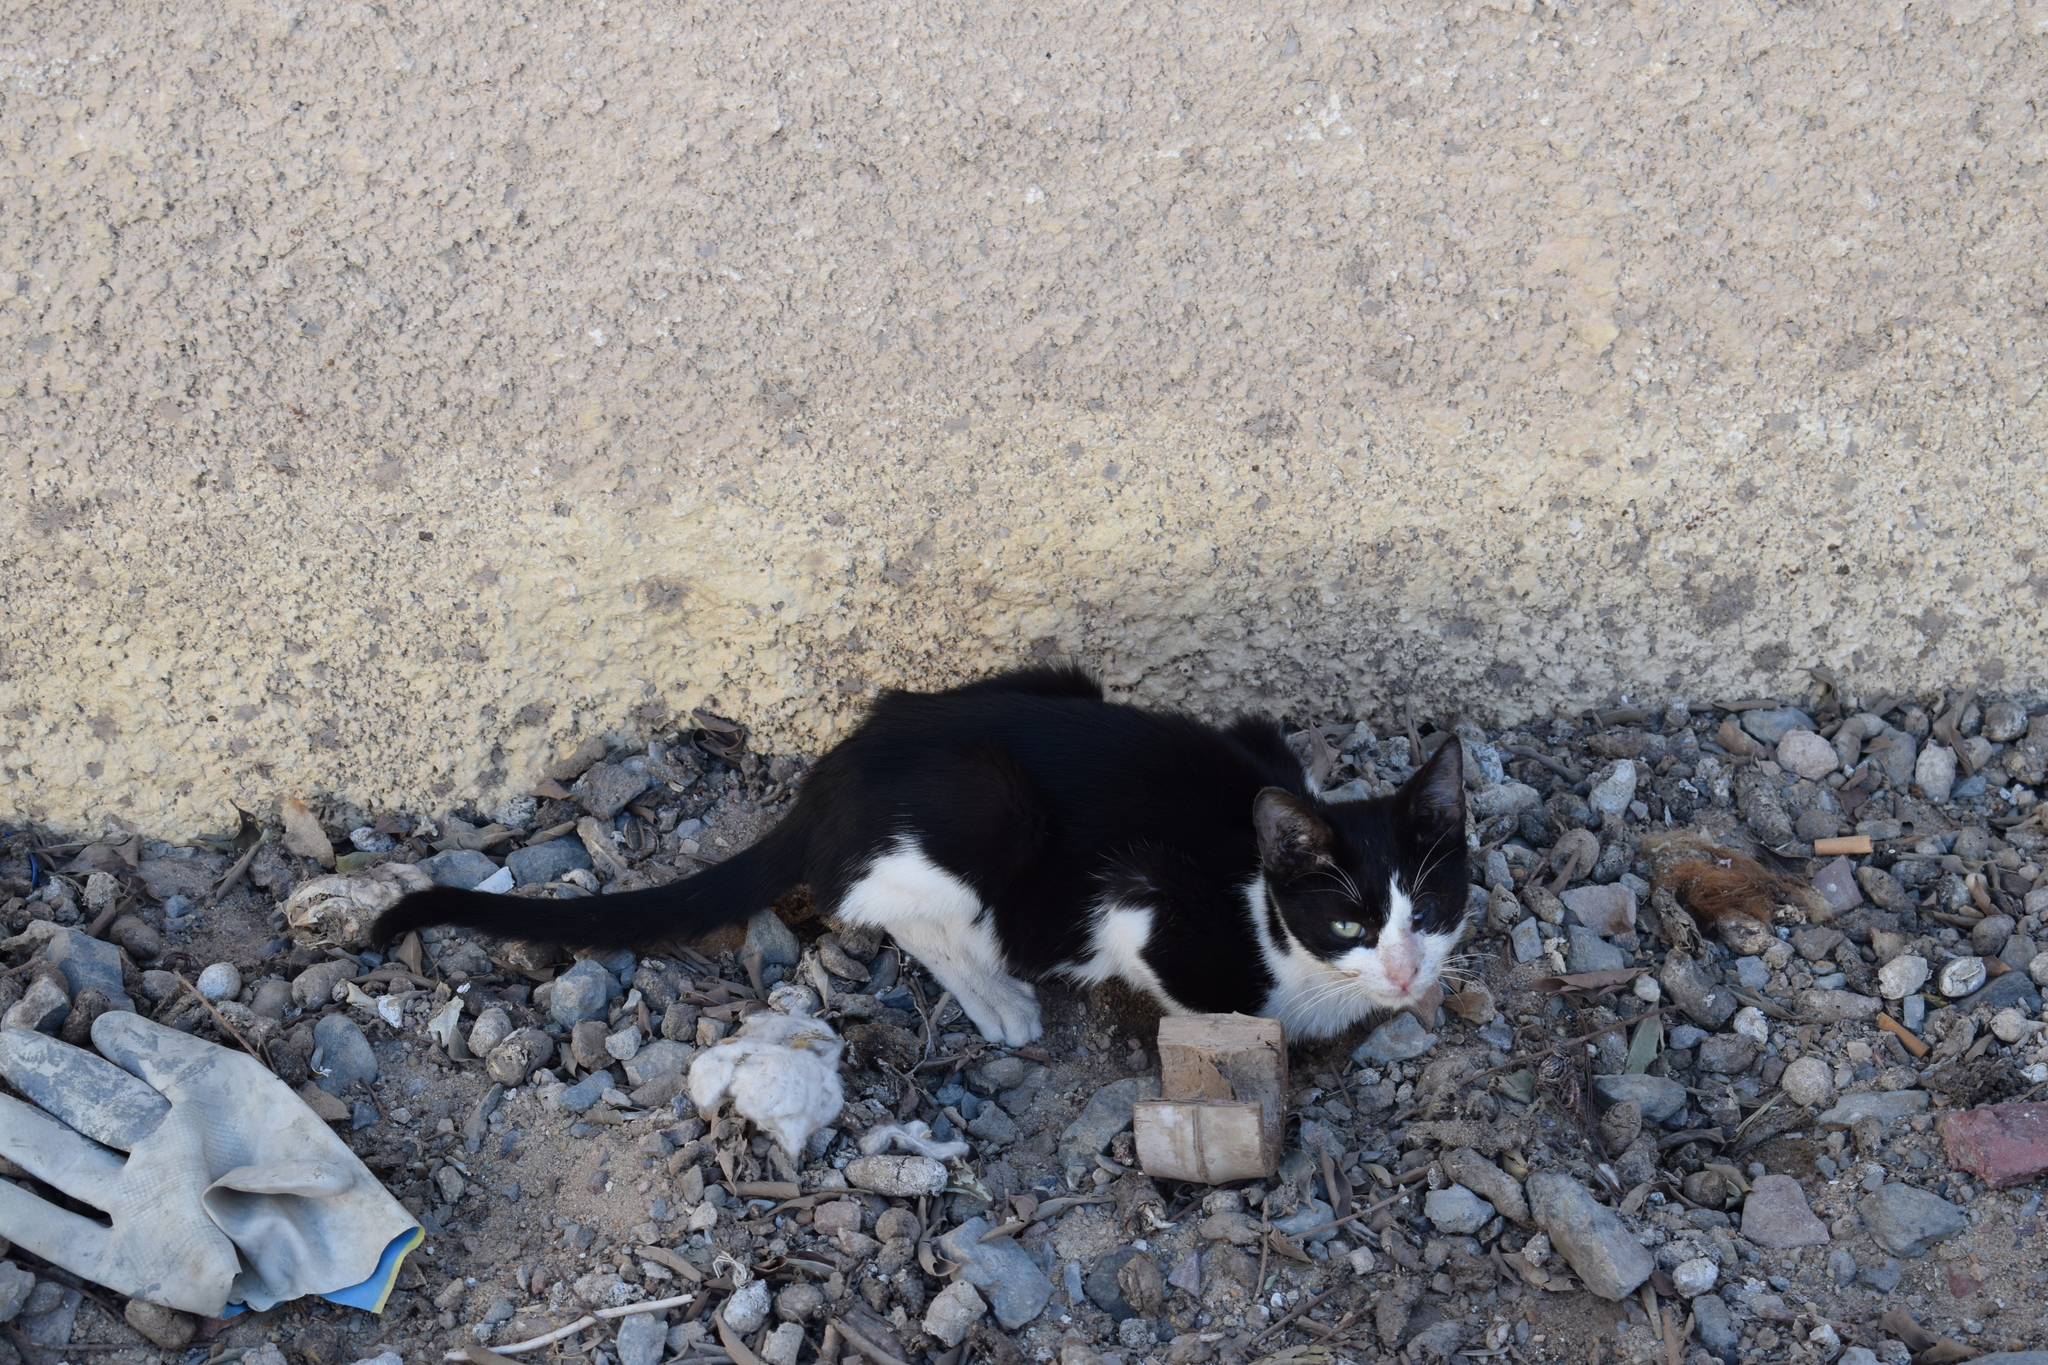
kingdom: Animalia
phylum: Chordata
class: Mammalia
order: Carnivora
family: Felidae
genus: Felis
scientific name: Felis catus
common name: Domestic cat
